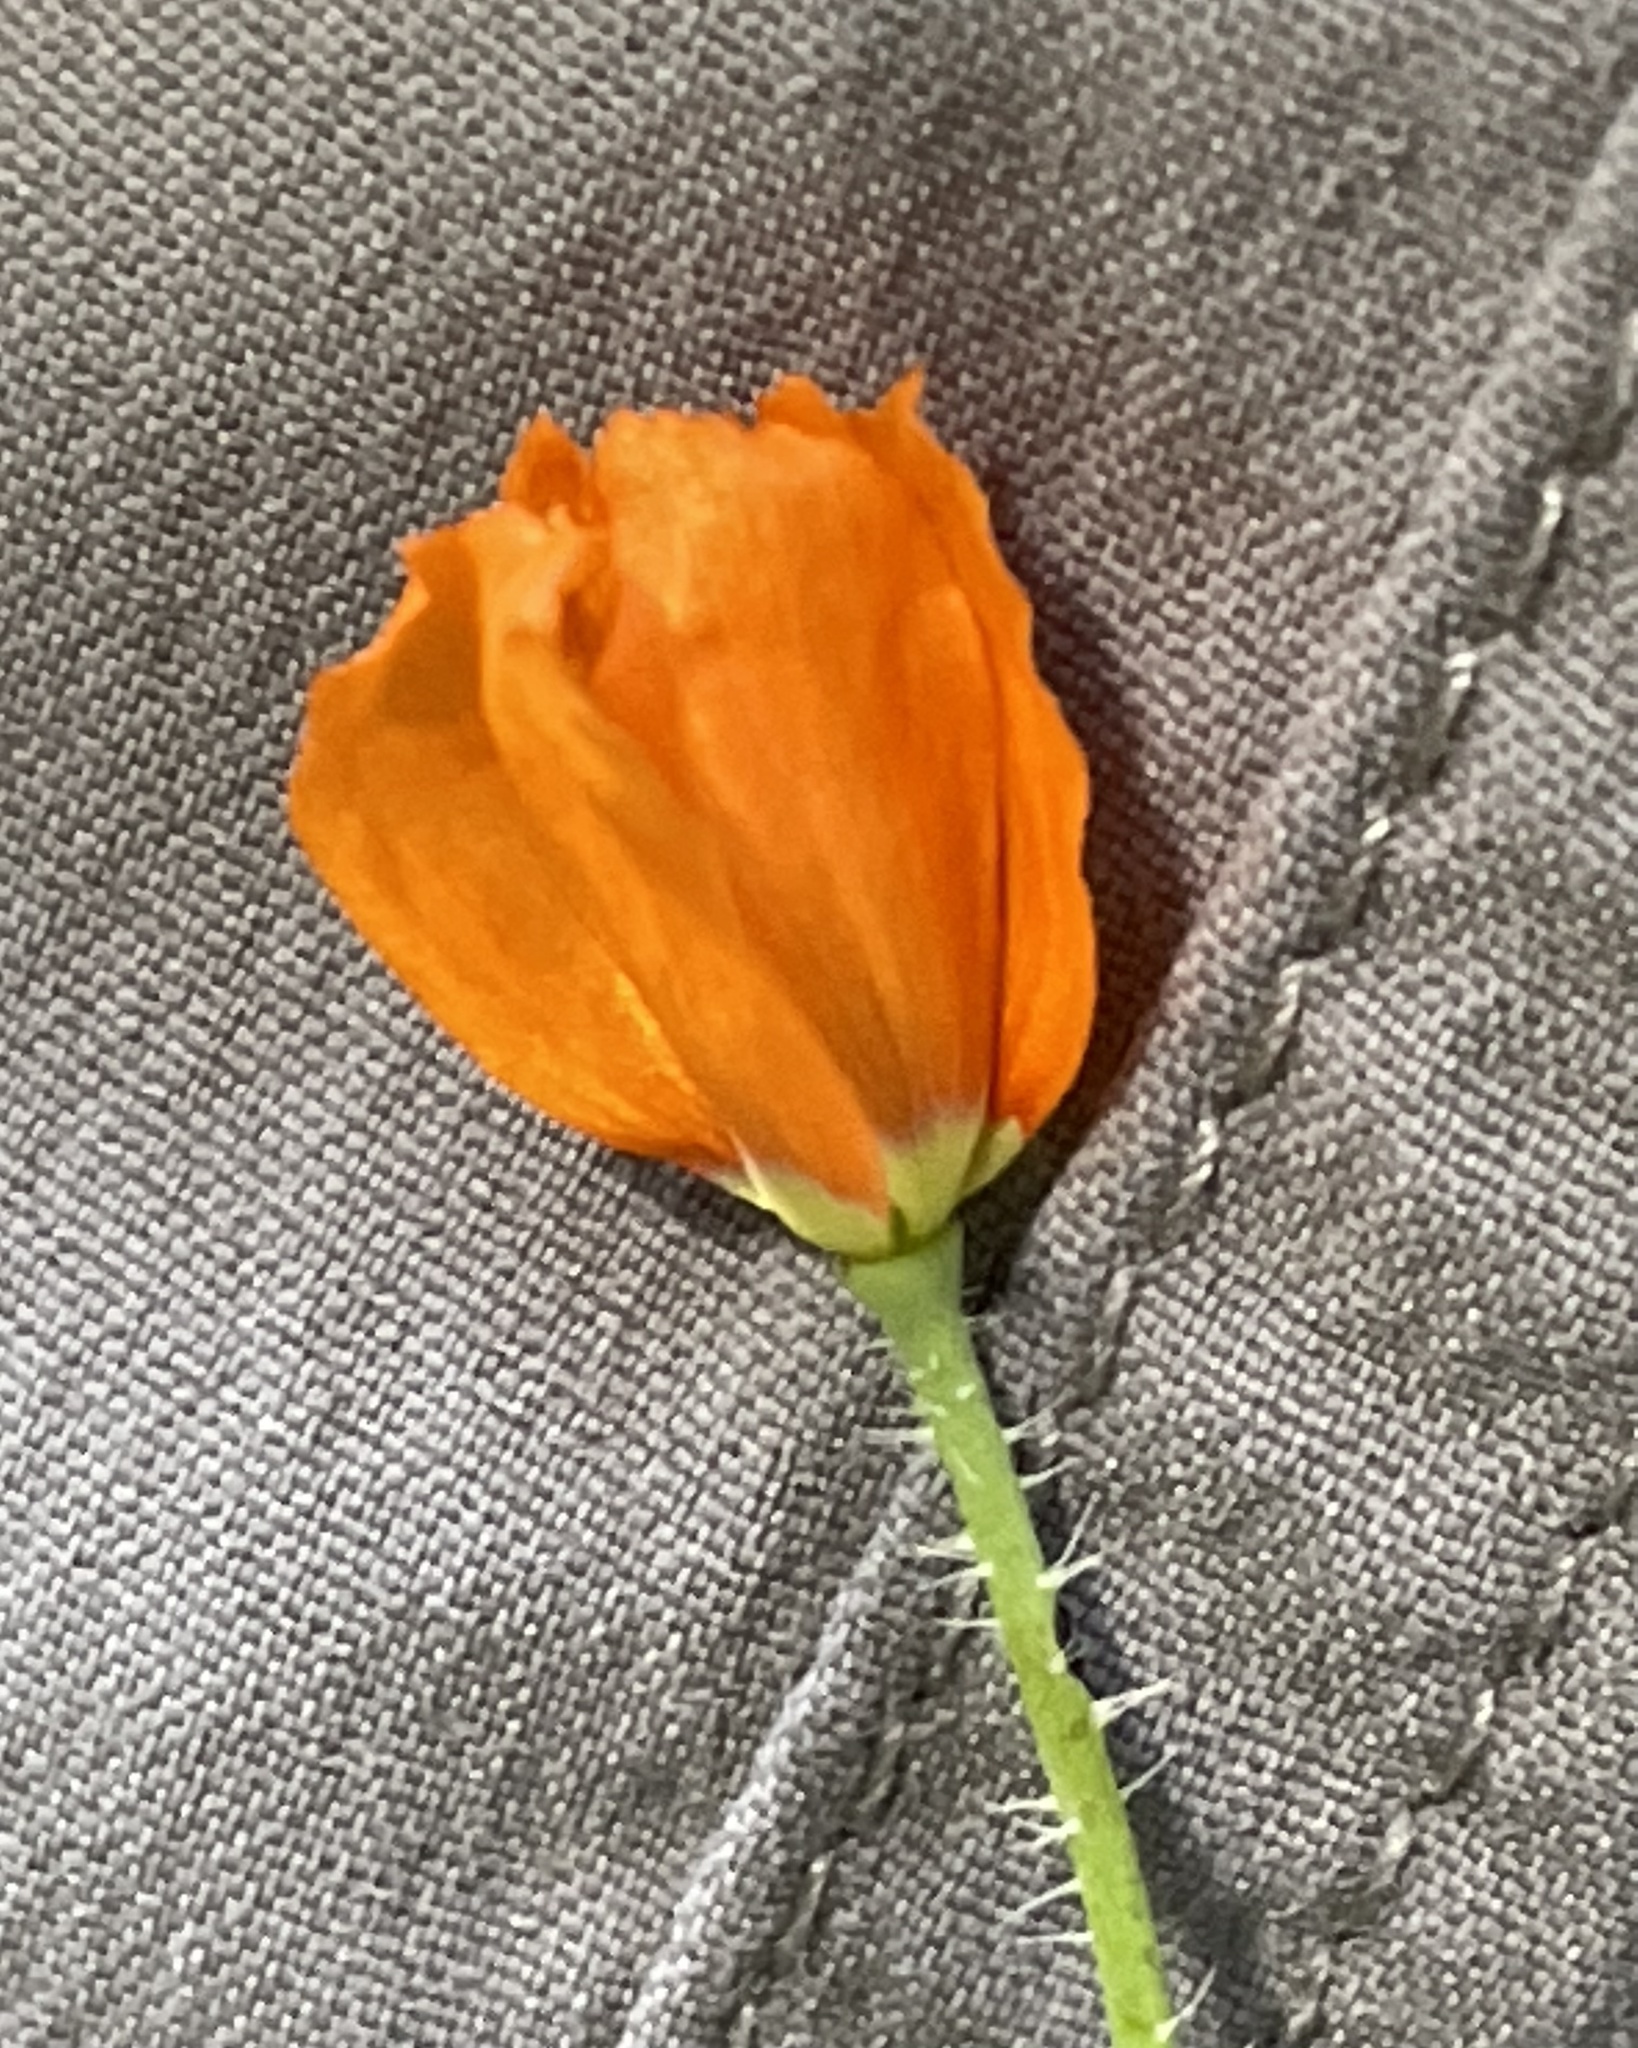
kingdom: Plantae
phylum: Tracheophyta
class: Magnoliopsida
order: Ranunculales
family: Papaveraceae
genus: Papaver
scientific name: Papaver californicum
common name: Fire poppy
